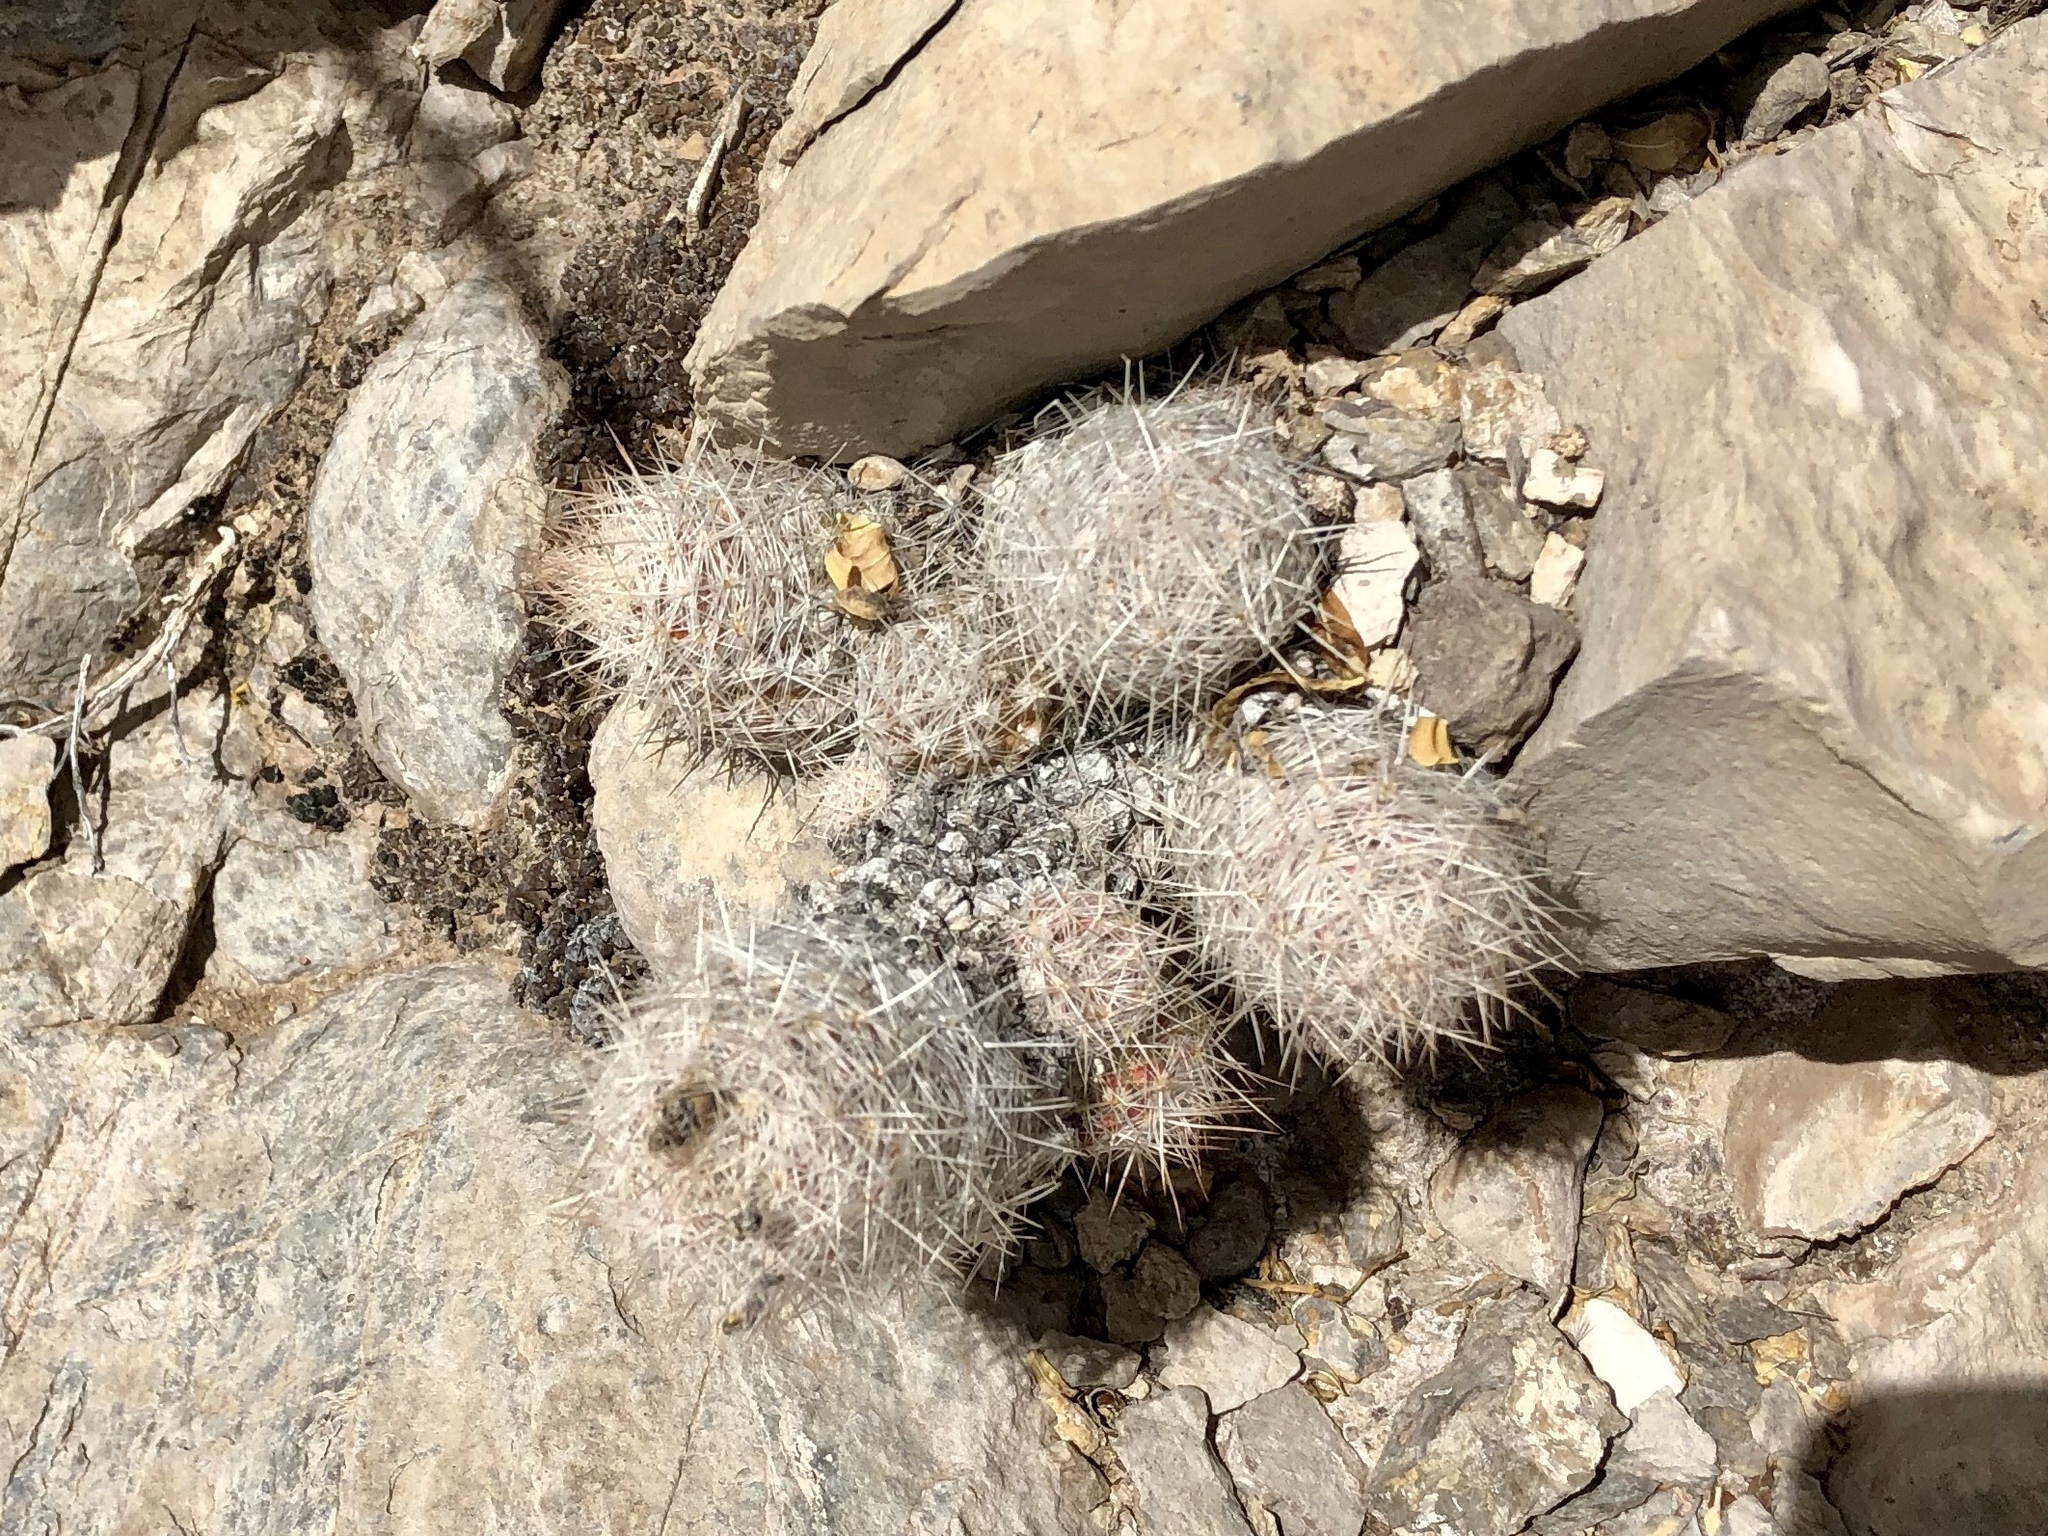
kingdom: Plantae
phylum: Tracheophyta
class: Magnoliopsida
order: Caryophyllales
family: Cactaceae
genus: Pelecyphora
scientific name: Pelecyphora tuberculosa
